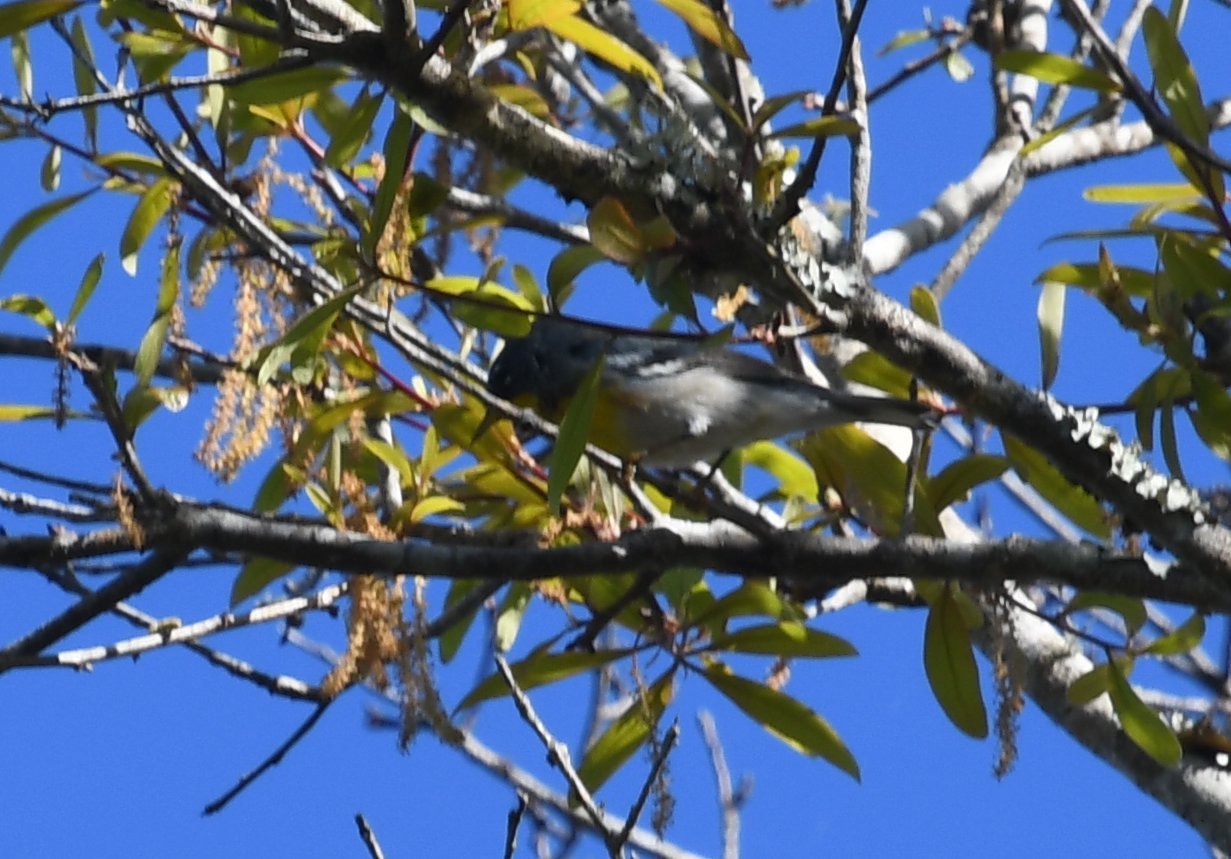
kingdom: Animalia
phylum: Chordata
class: Aves
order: Passeriformes
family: Parulidae
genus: Setophaga
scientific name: Setophaga americana
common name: Northern parula
